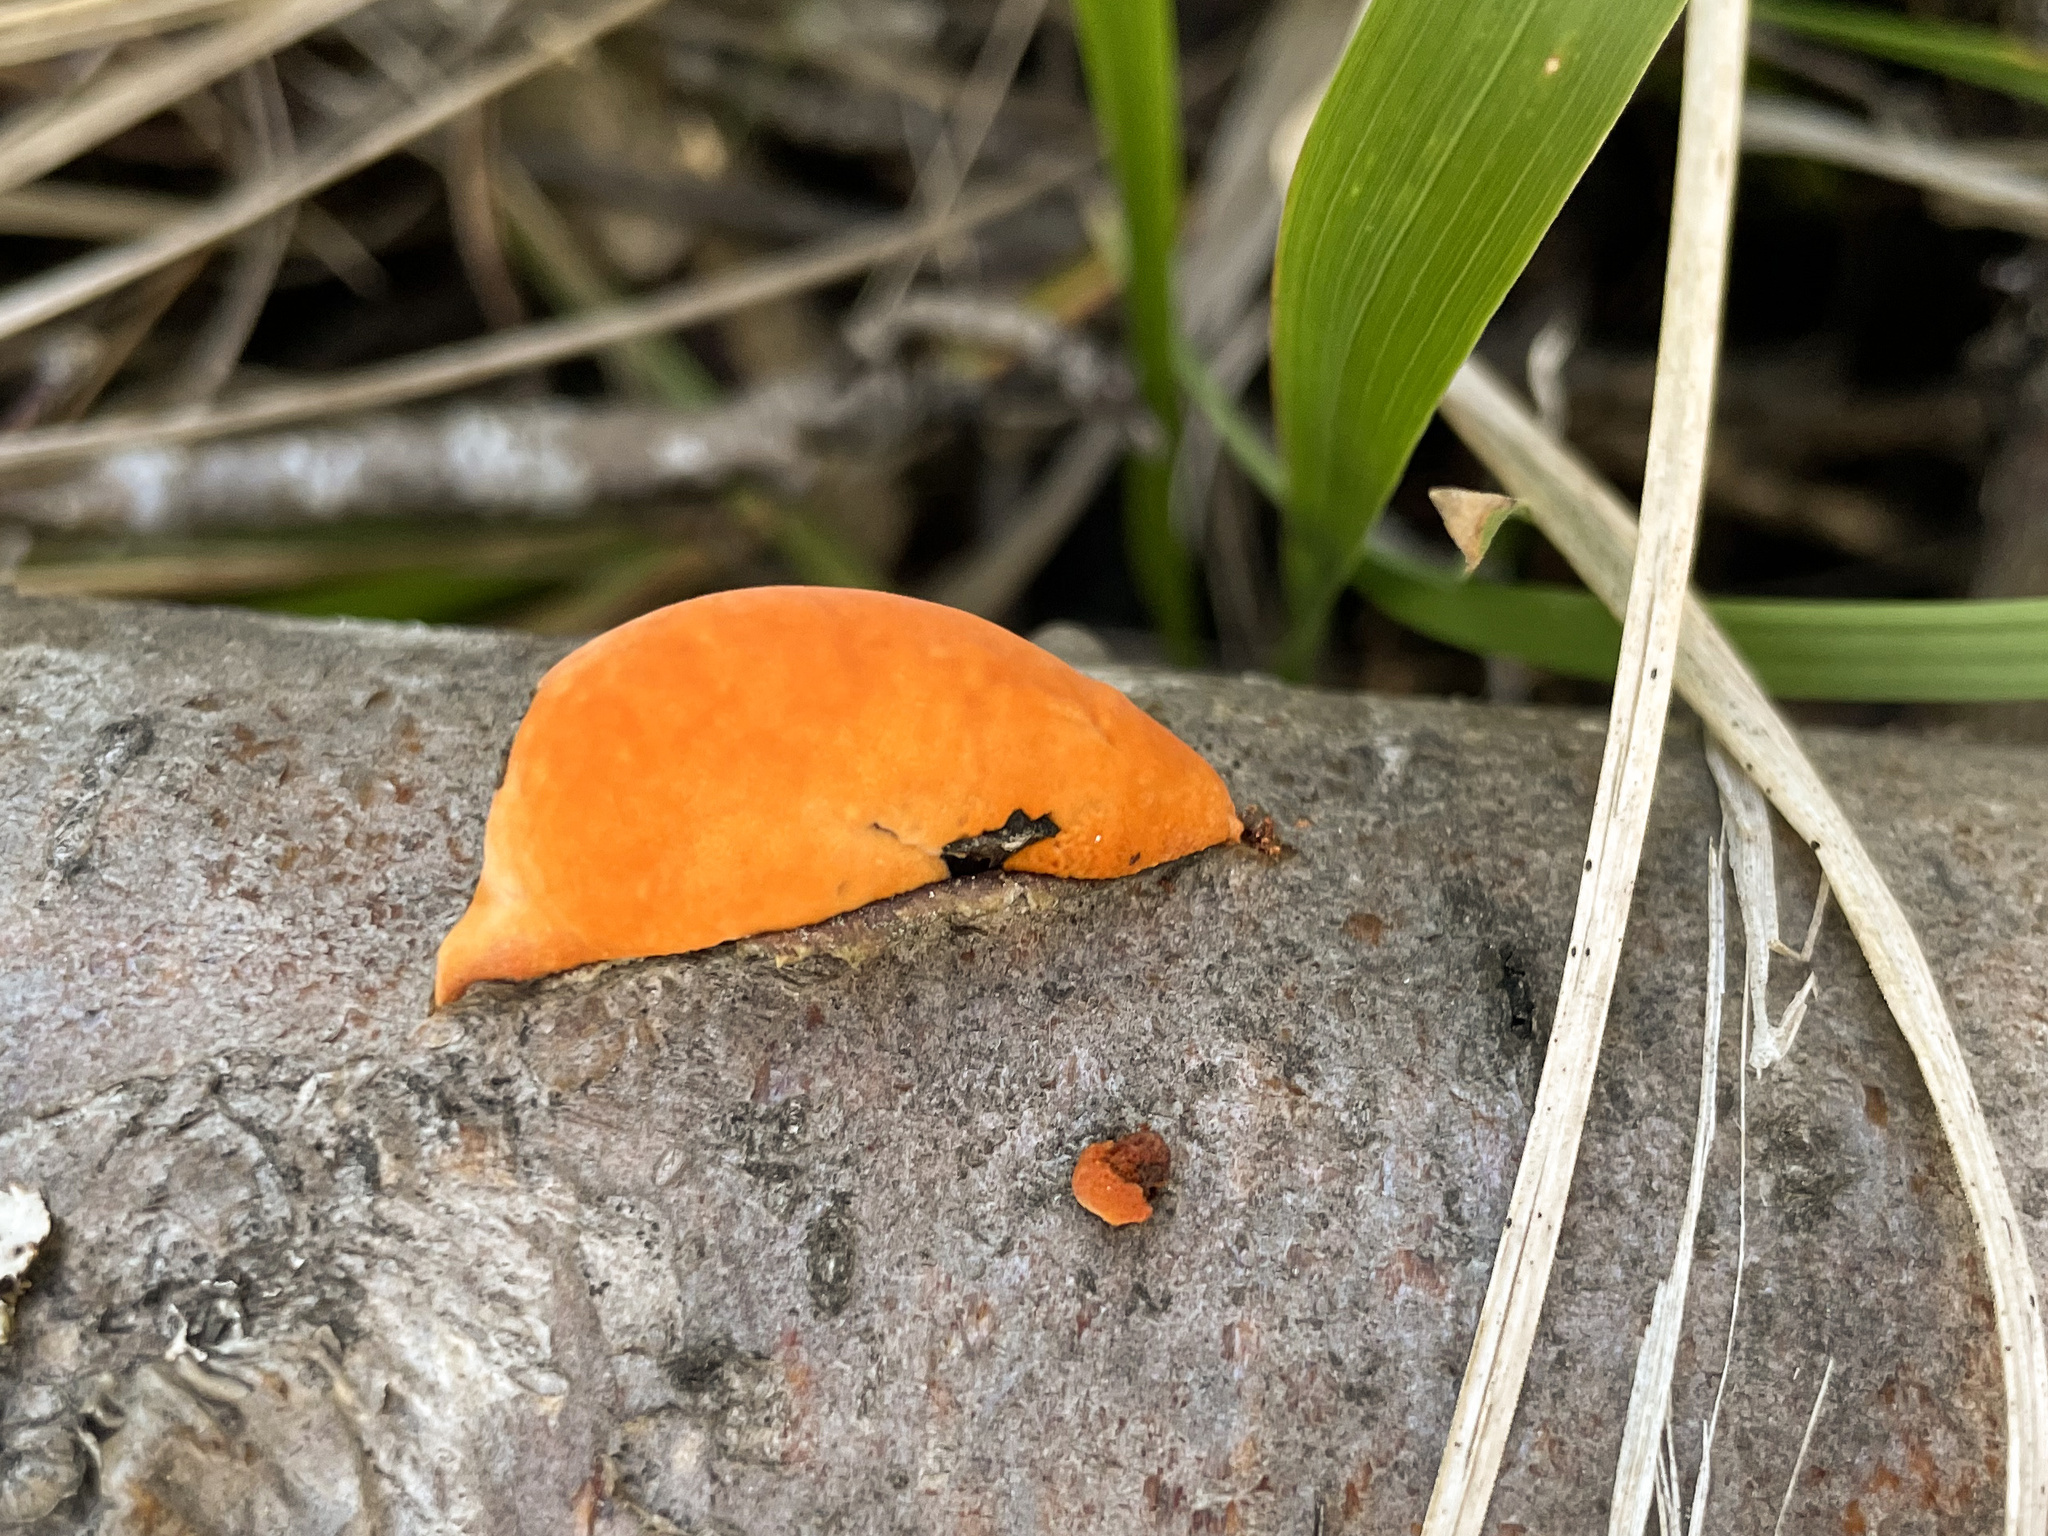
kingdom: Fungi
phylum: Basidiomycota
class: Agaricomycetes
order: Polyporales
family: Polyporaceae
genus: Trametes
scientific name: Trametes cinnabarina
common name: Northern cinnabar polypore
